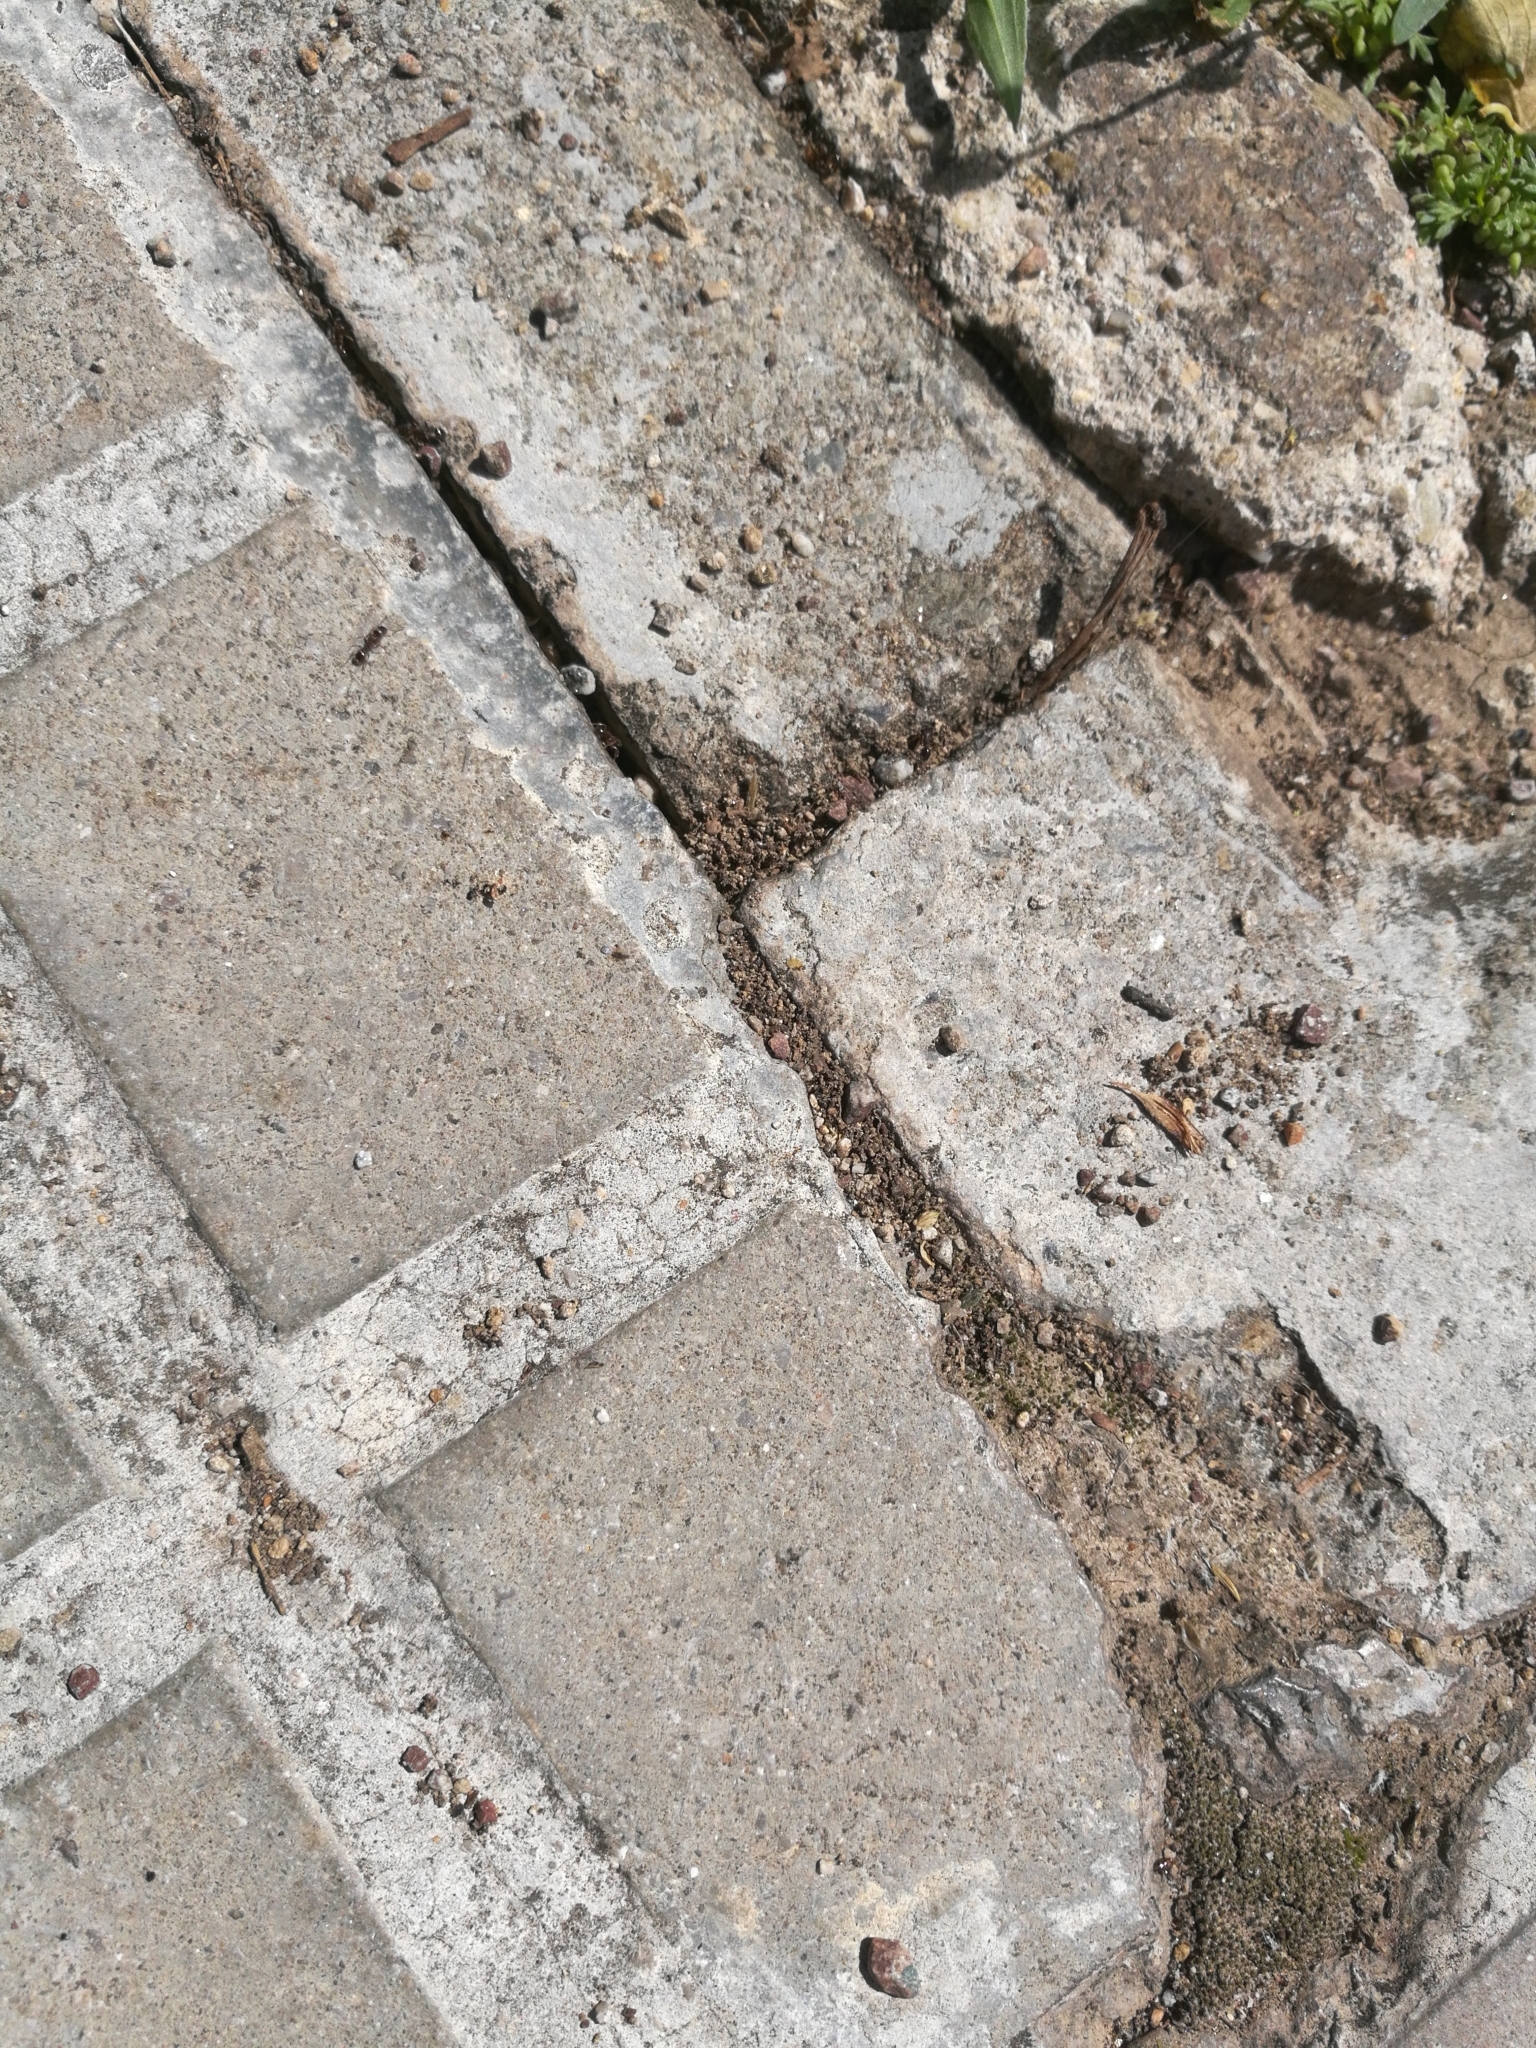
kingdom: Animalia
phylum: Arthropoda
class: Insecta
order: Hymenoptera
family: Formicidae
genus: Tetramorium
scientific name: Tetramorium immigrans
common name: Pavement ant
